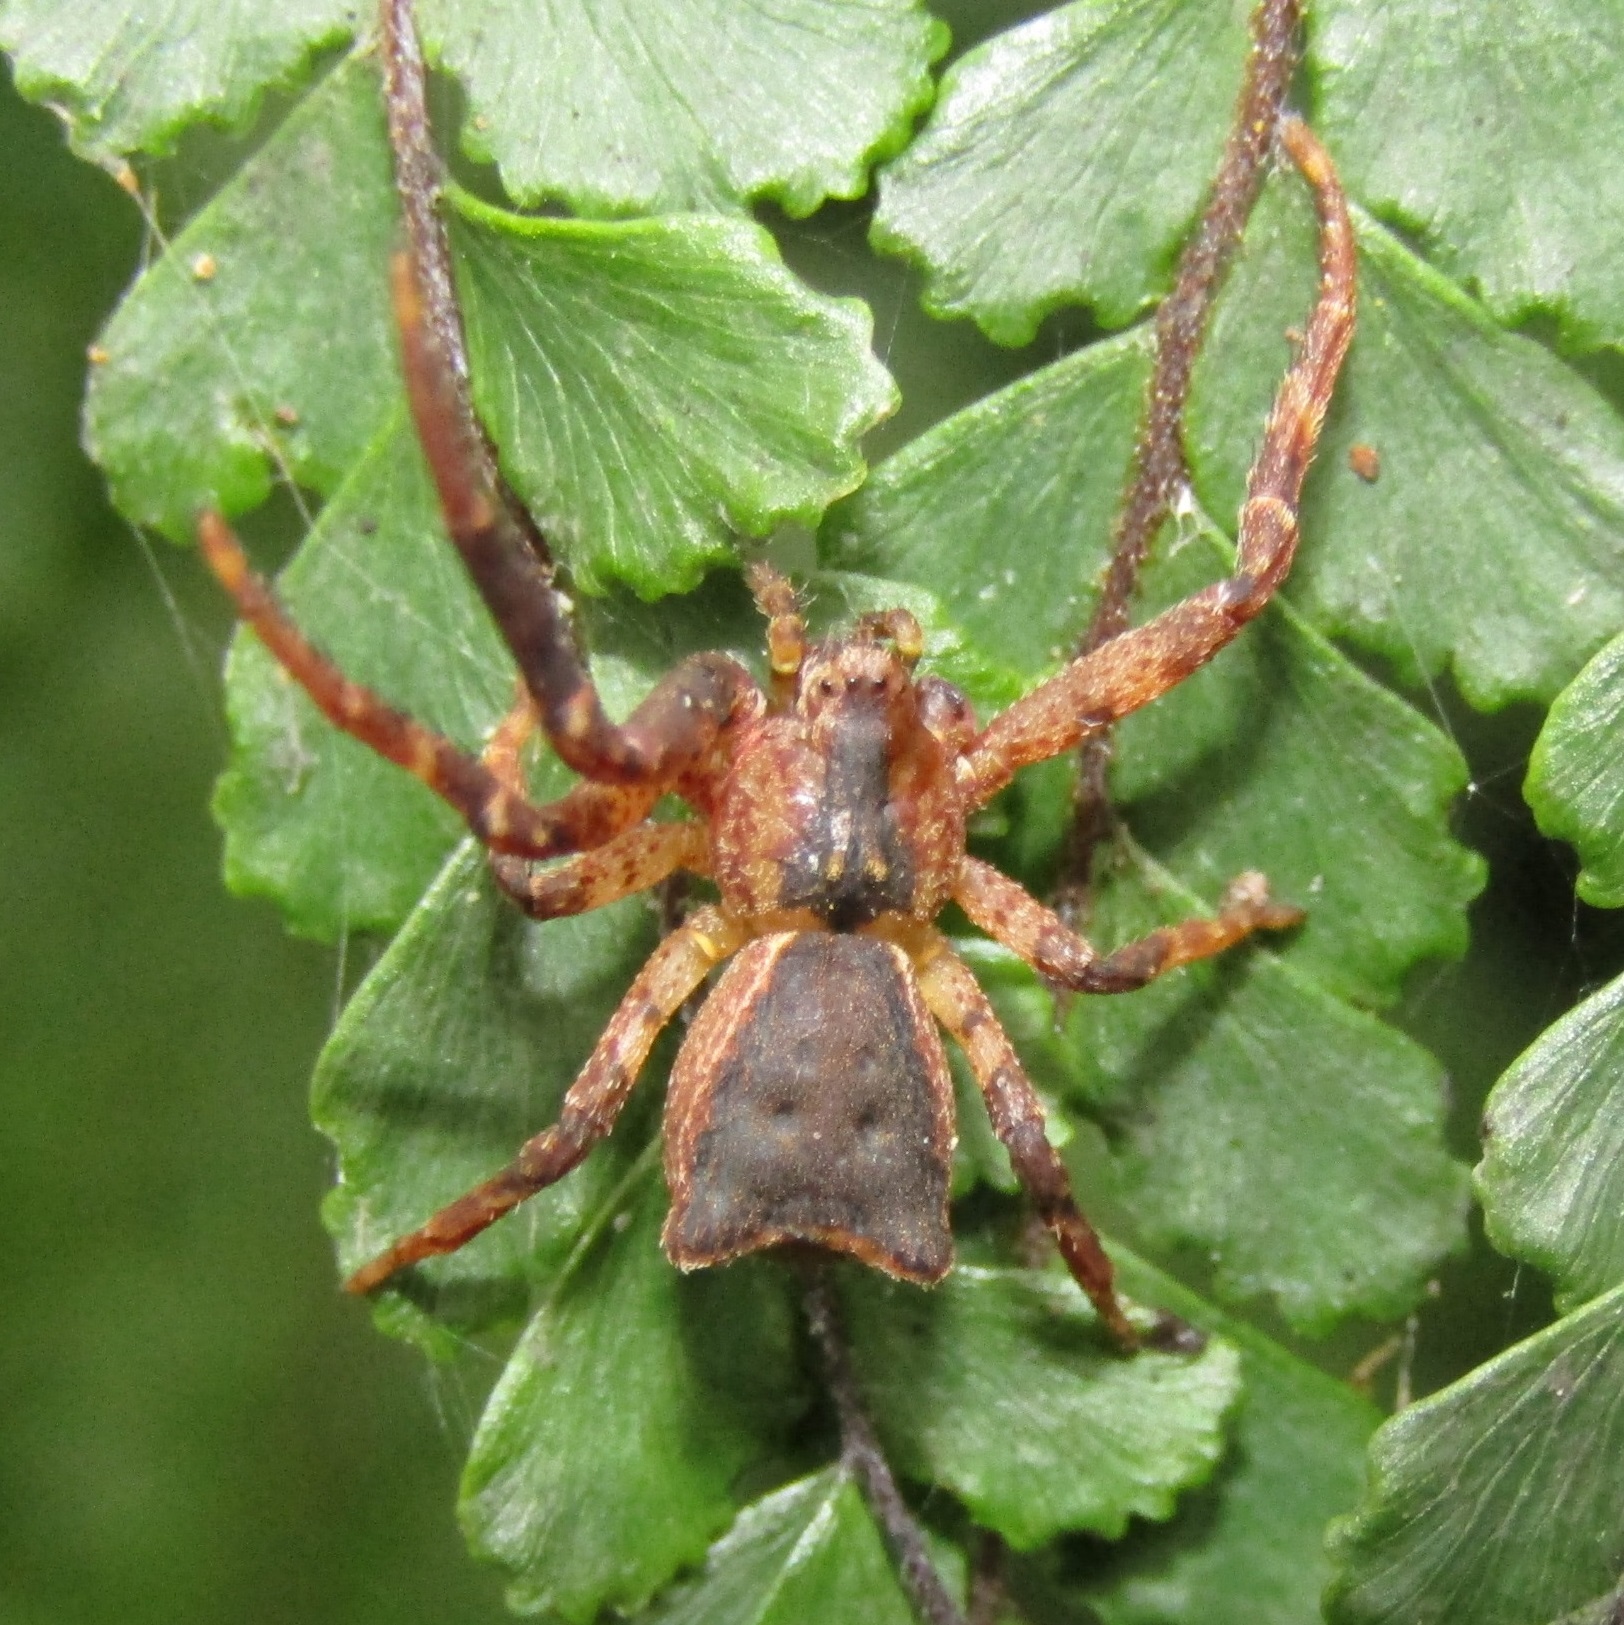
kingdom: Animalia
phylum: Arthropoda
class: Arachnida
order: Araneae
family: Thomisidae
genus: Sidymella
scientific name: Sidymella angularis
